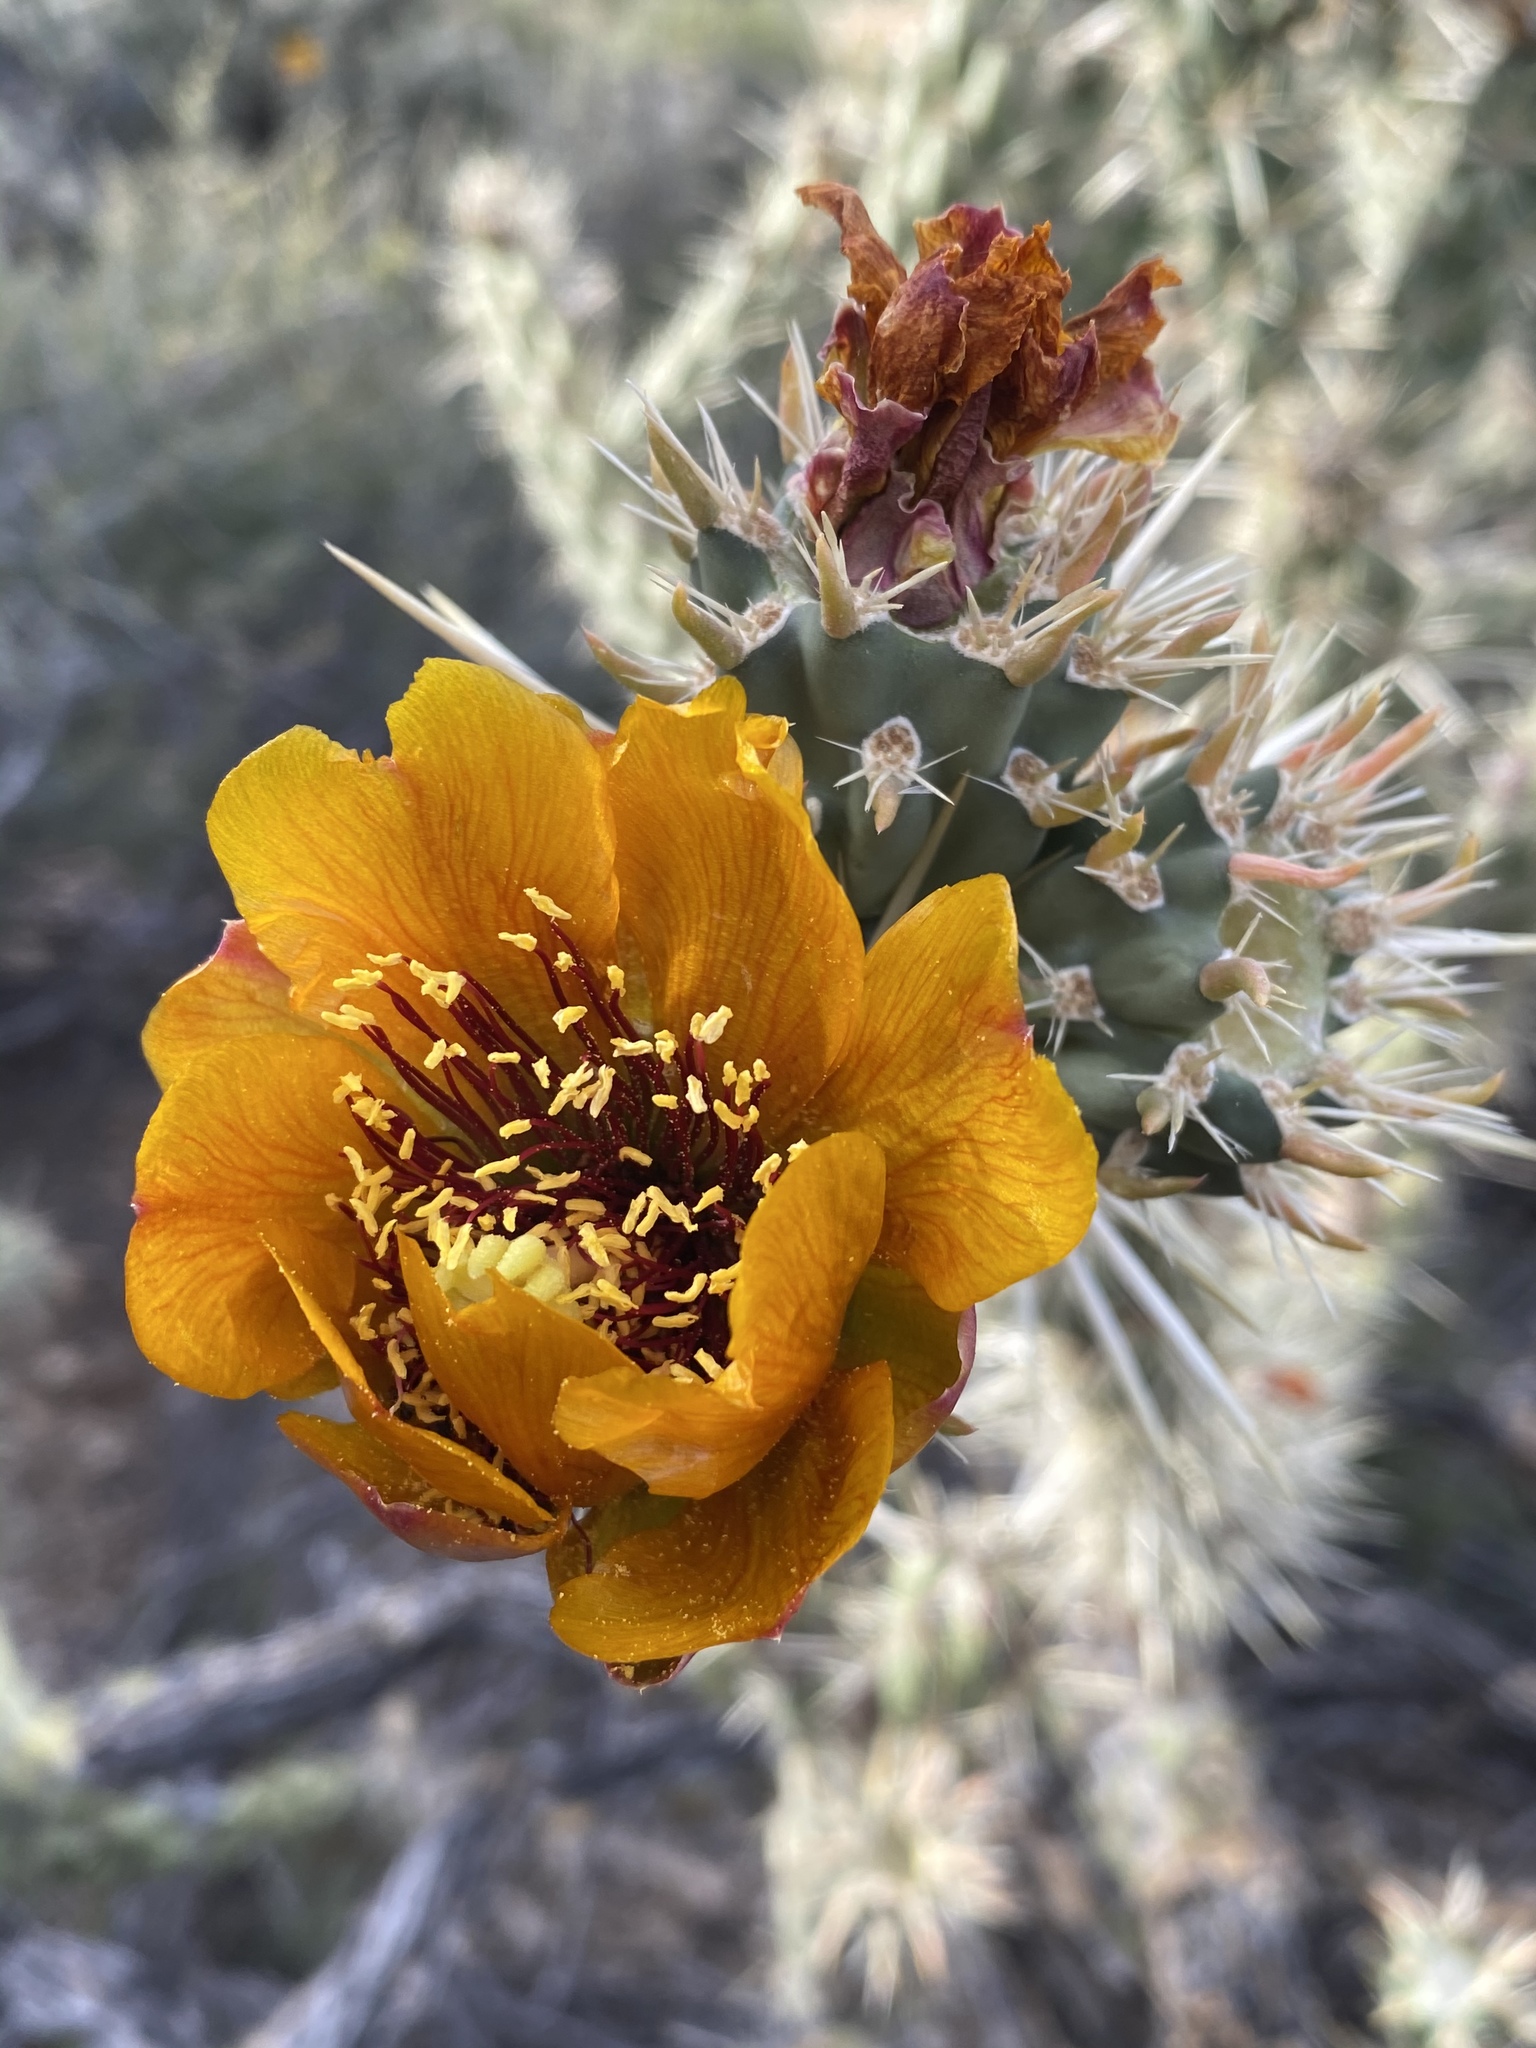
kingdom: Plantae
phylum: Tracheophyta
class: Magnoliopsida
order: Caryophyllales
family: Cactaceae
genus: Cylindropuntia
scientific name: Cylindropuntia acanthocarpa
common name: Buckhorn cholla
